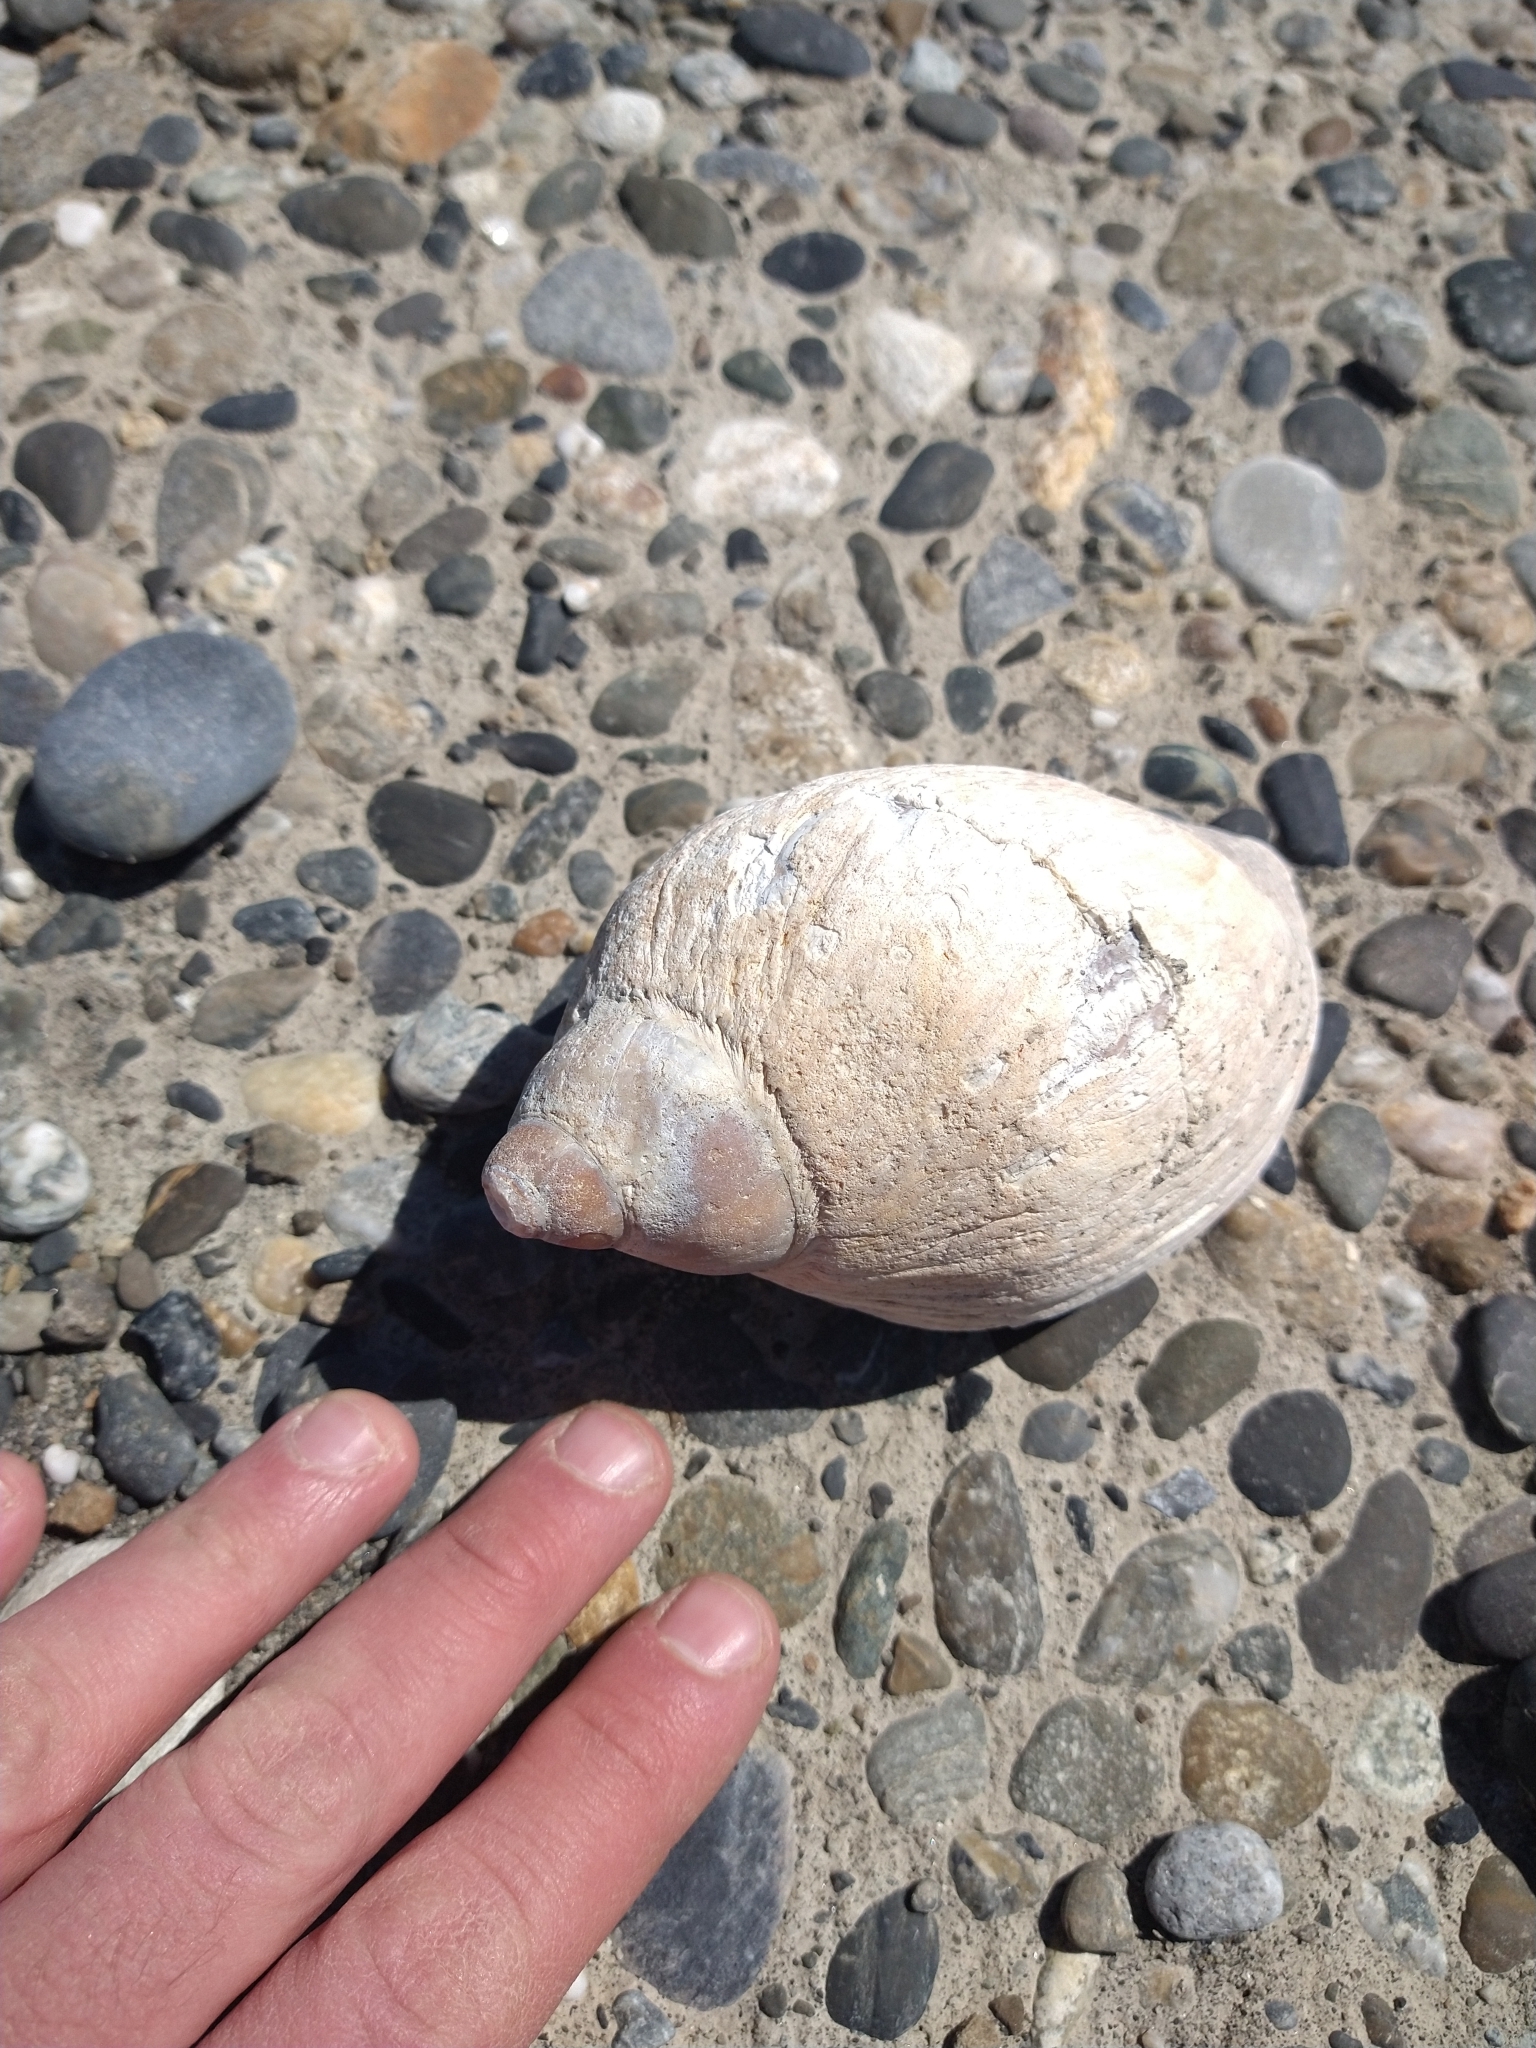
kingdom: Animalia
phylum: Mollusca
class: Gastropoda
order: Neogastropoda
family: Volutidae
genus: Odontocymbiola
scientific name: Odontocymbiola magellanica
